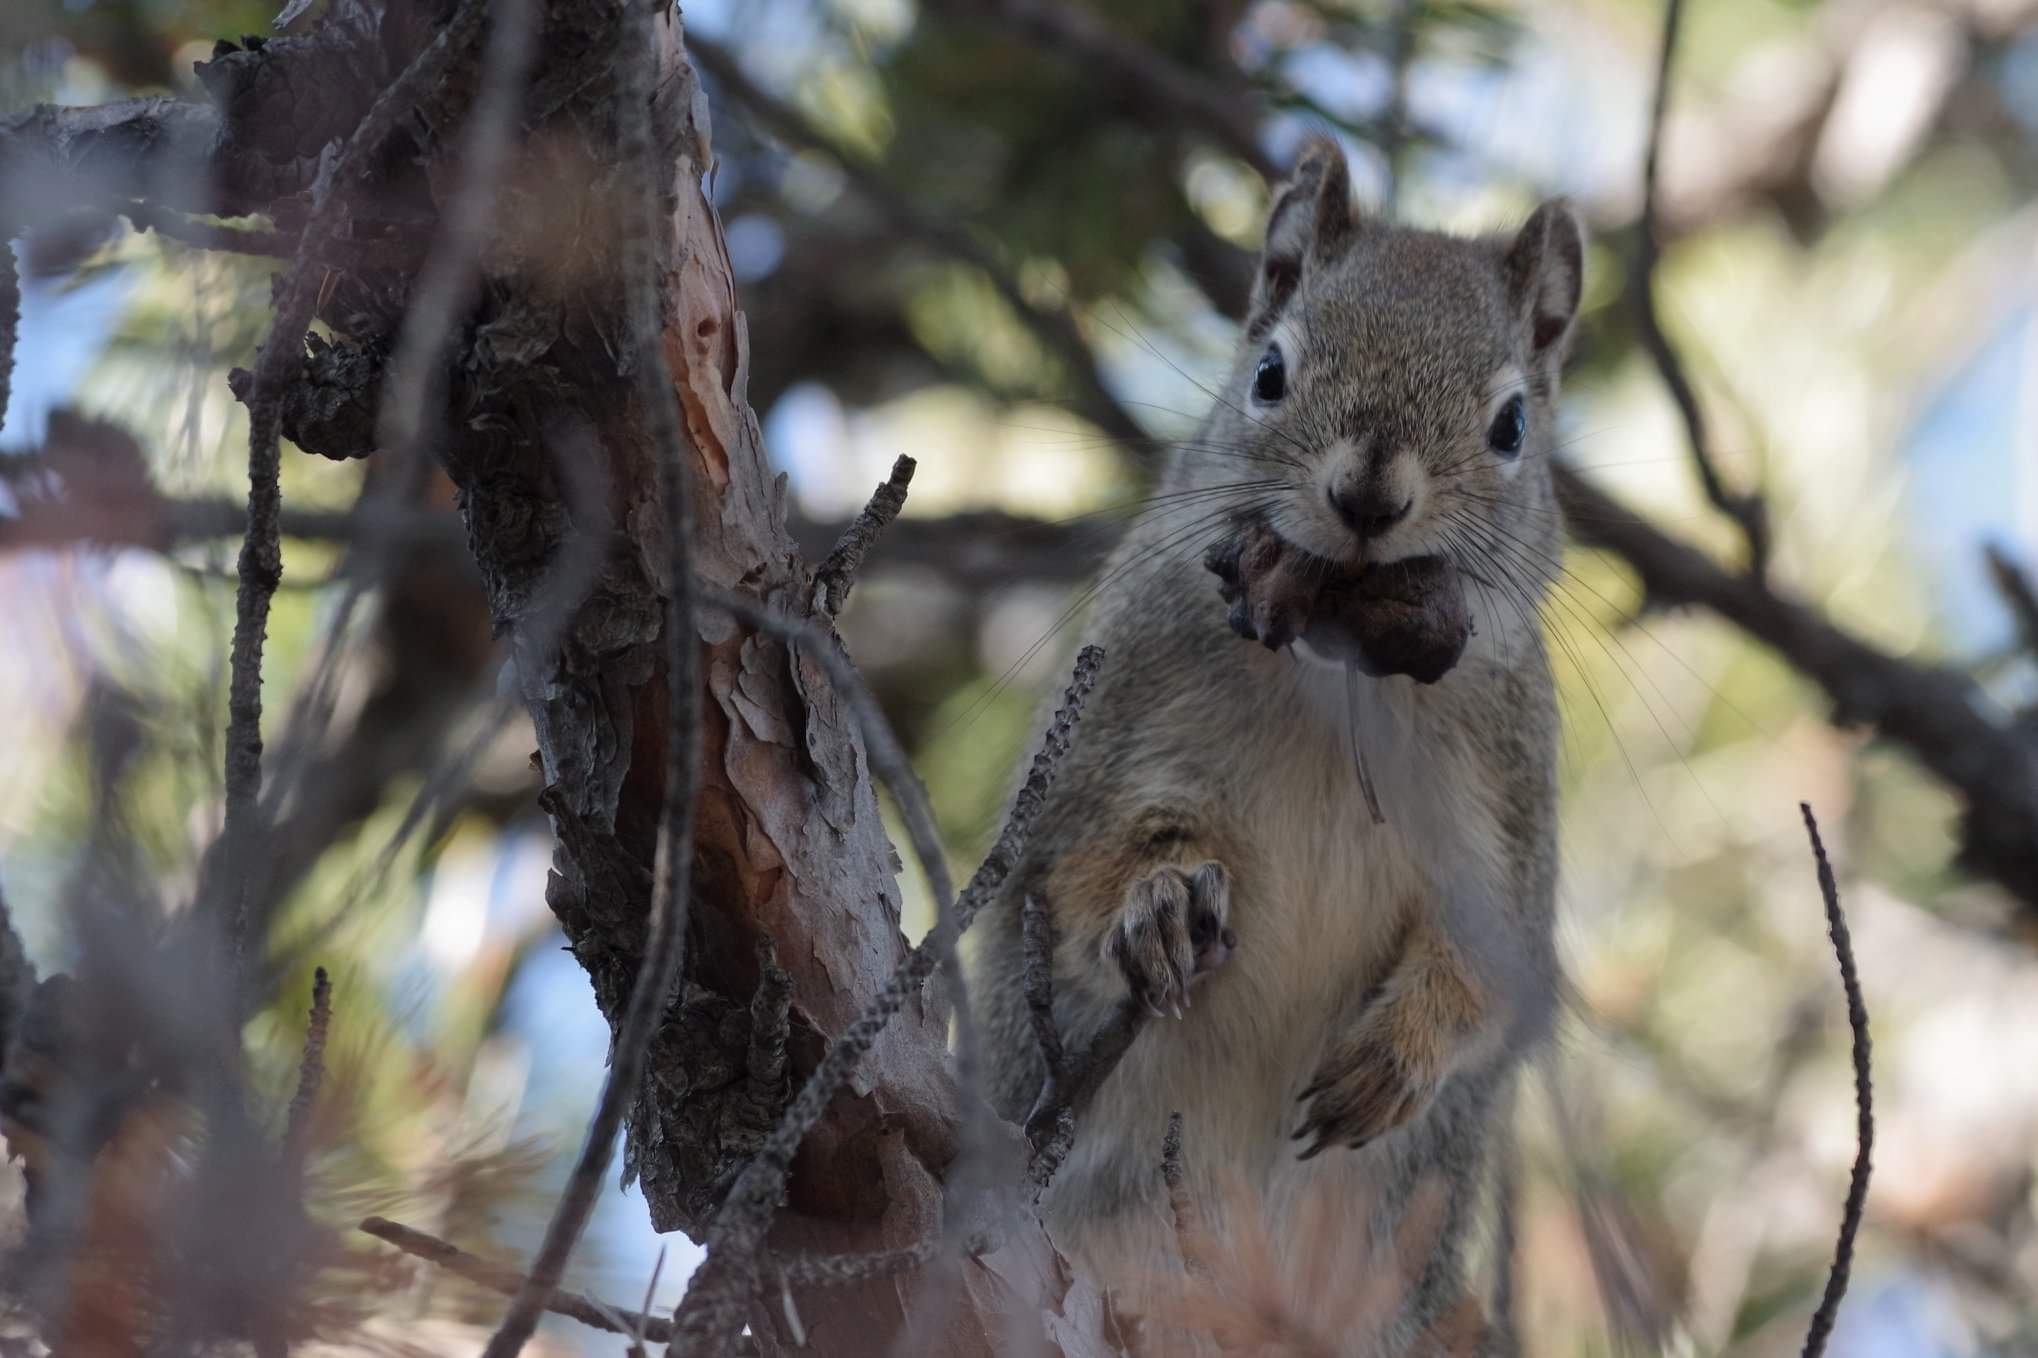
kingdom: Animalia
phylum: Chordata
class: Mammalia
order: Rodentia
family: Sciuridae
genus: Tamiasciurus
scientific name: Tamiasciurus hudsonicus
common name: Red squirrel
